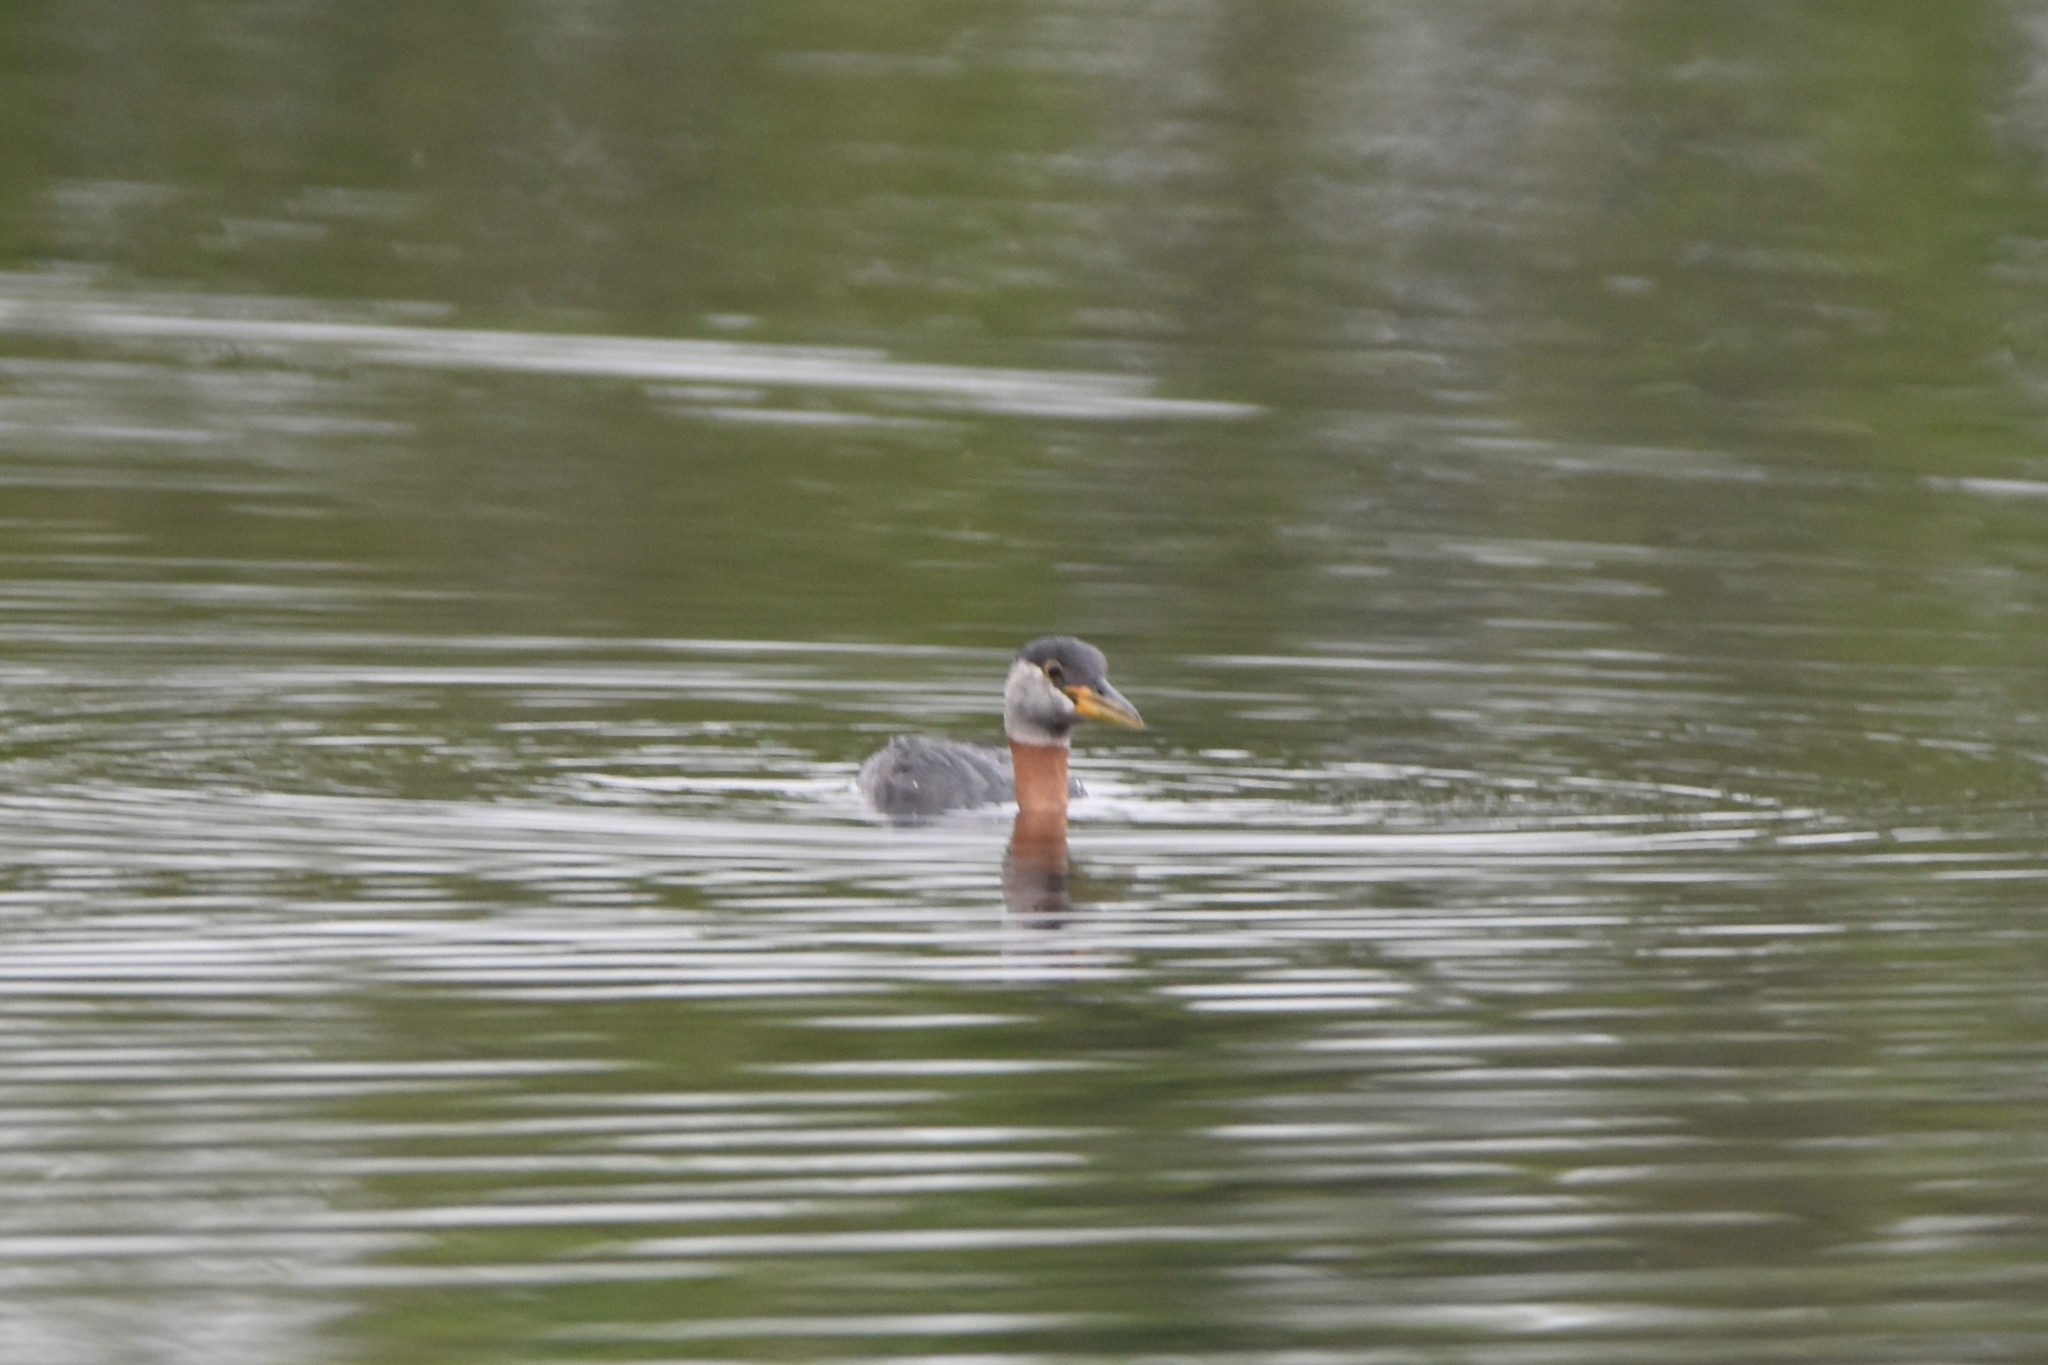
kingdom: Animalia
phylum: Chordata
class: Aves
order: Podicipediformes
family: Podicipedidae
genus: Podiceps
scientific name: Podiceps grisegena
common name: Red-necked grebe
